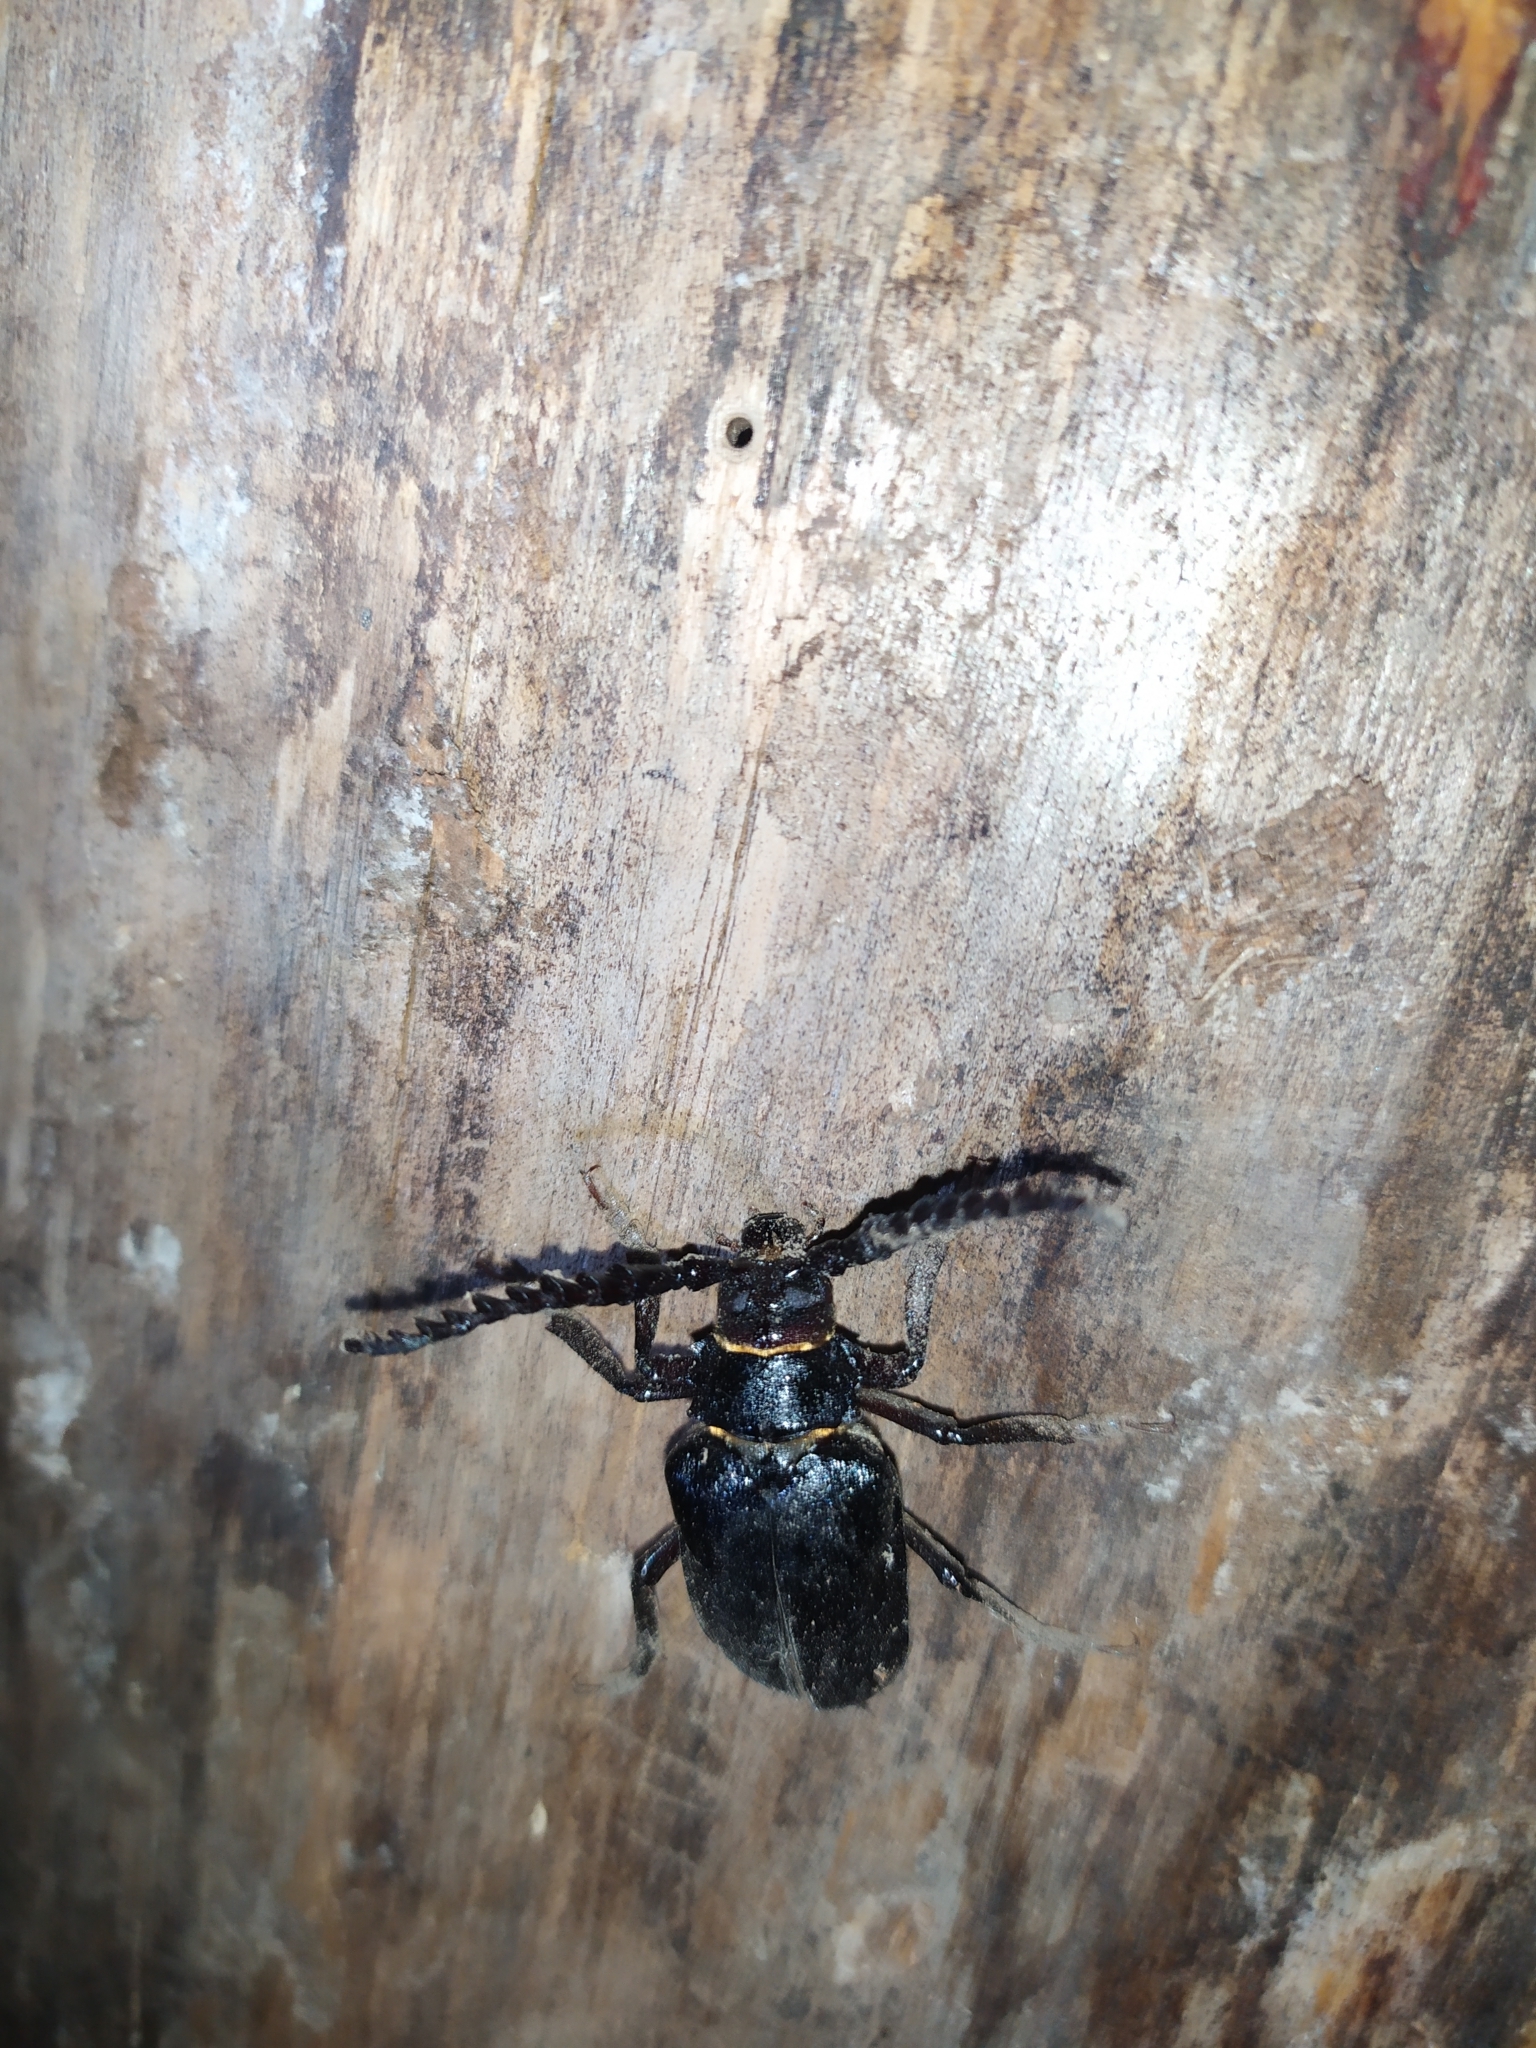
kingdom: Animalia
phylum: Arthropoda
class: Insecta
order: Coleoptera
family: Cerambycidae
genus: Prionus
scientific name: Prionus coriarius
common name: Tanner beetle
